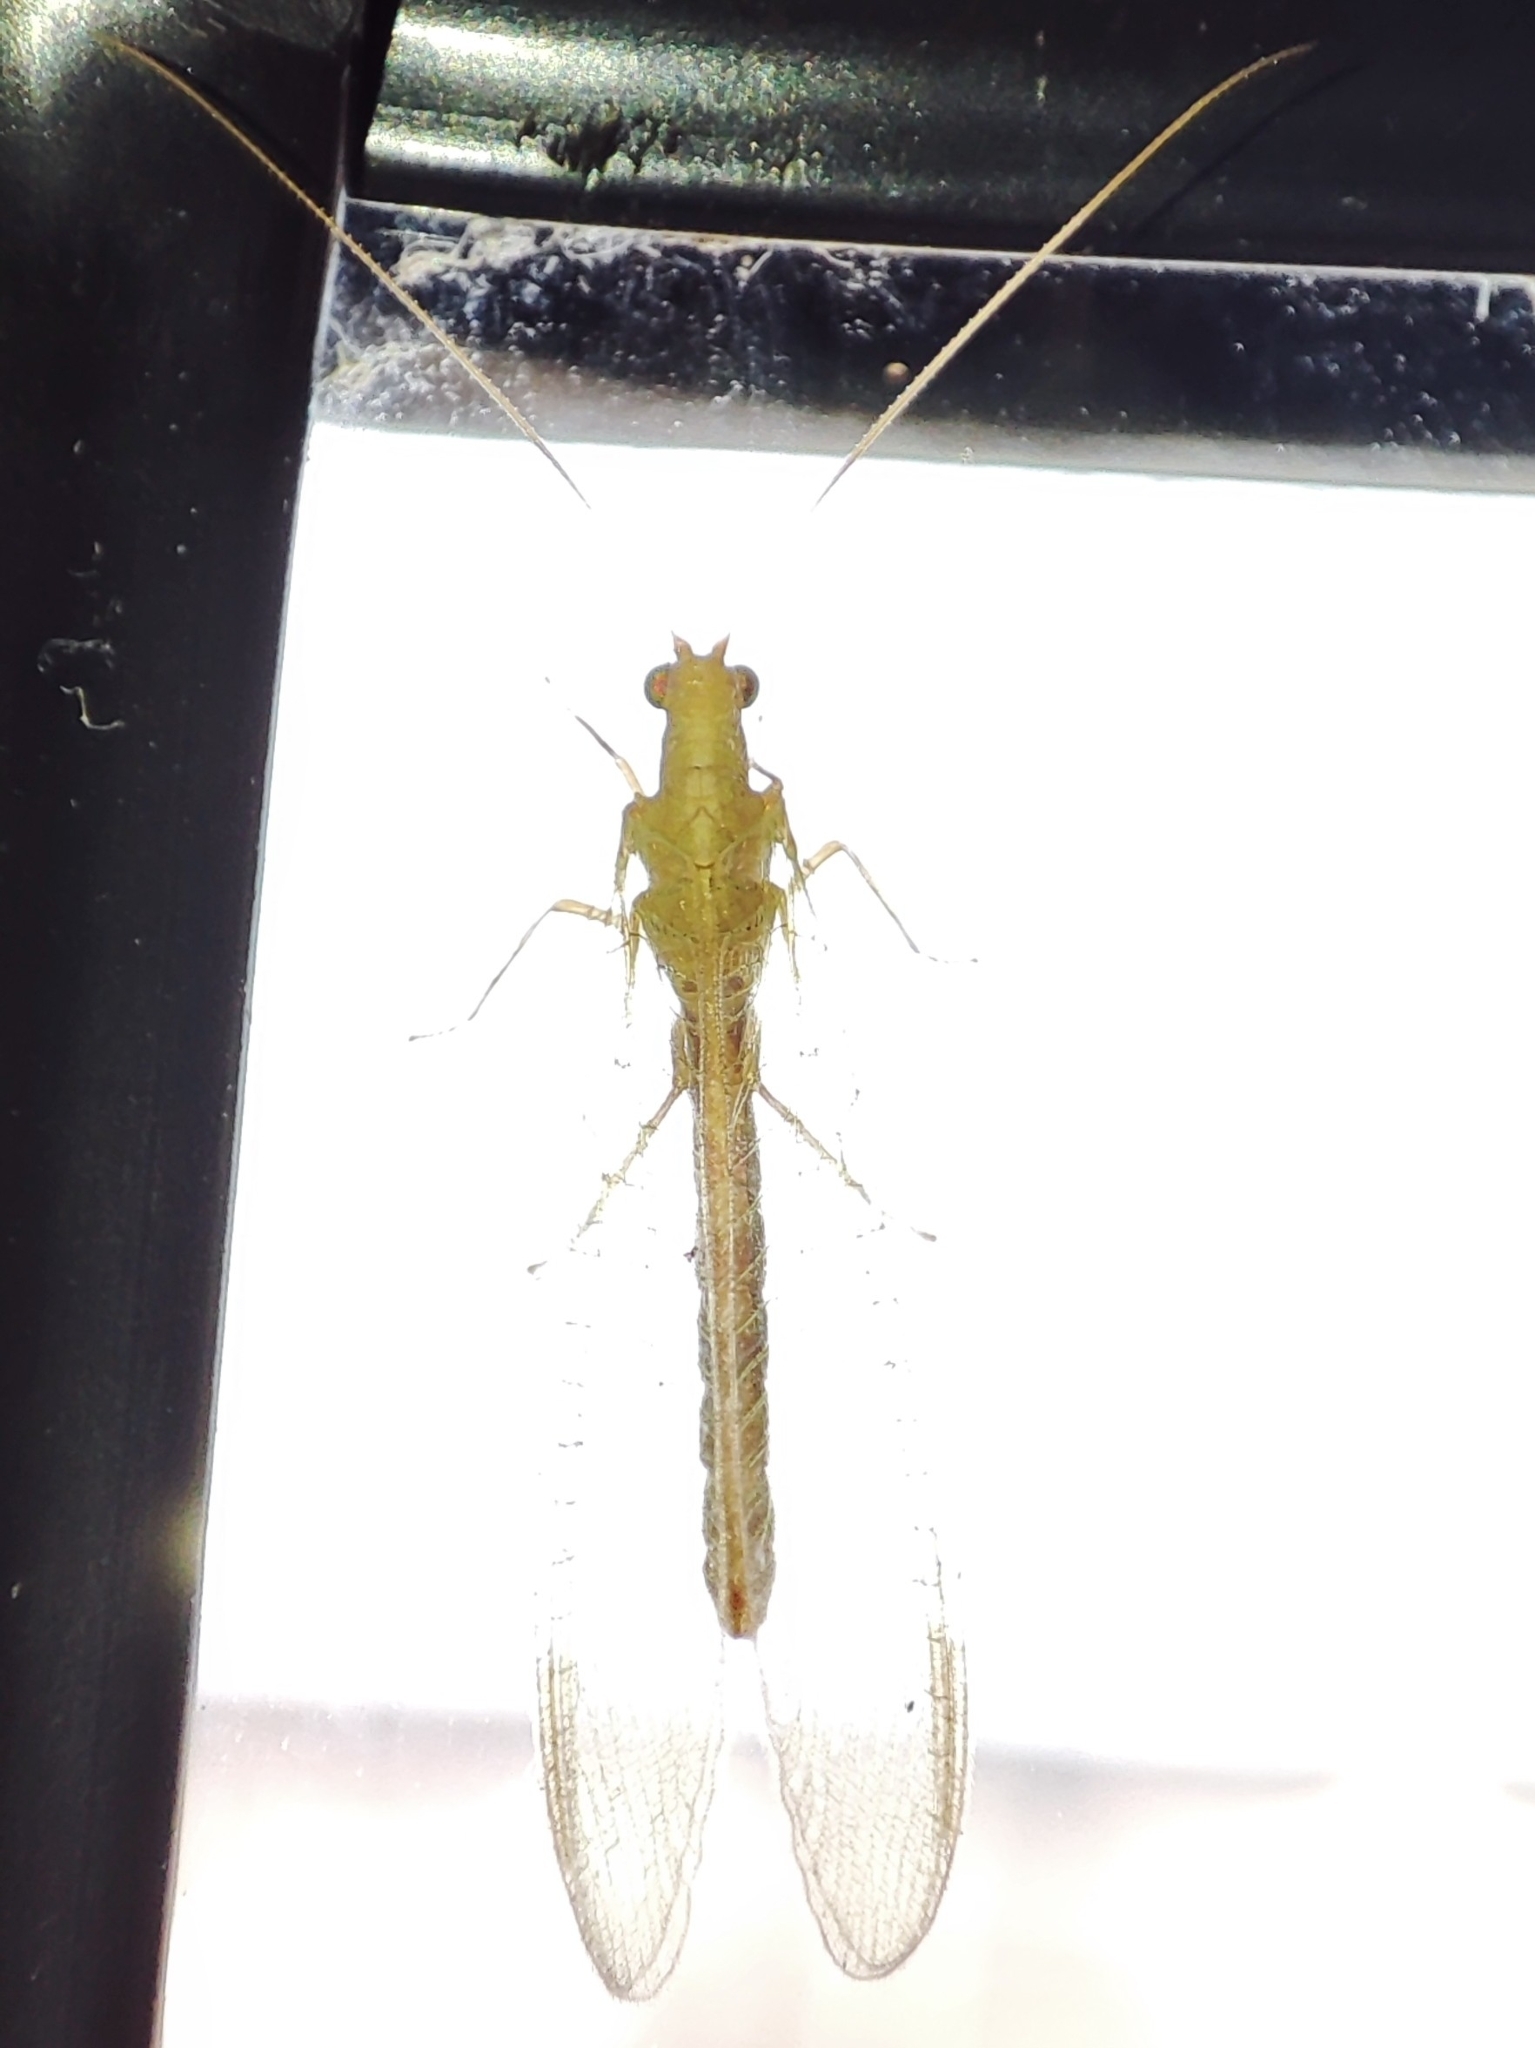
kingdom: Animalia
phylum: Arthropoda
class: Insecta
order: Neuroptera
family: Chrysopidae
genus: Chrysoperla
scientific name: Chrysoperla
